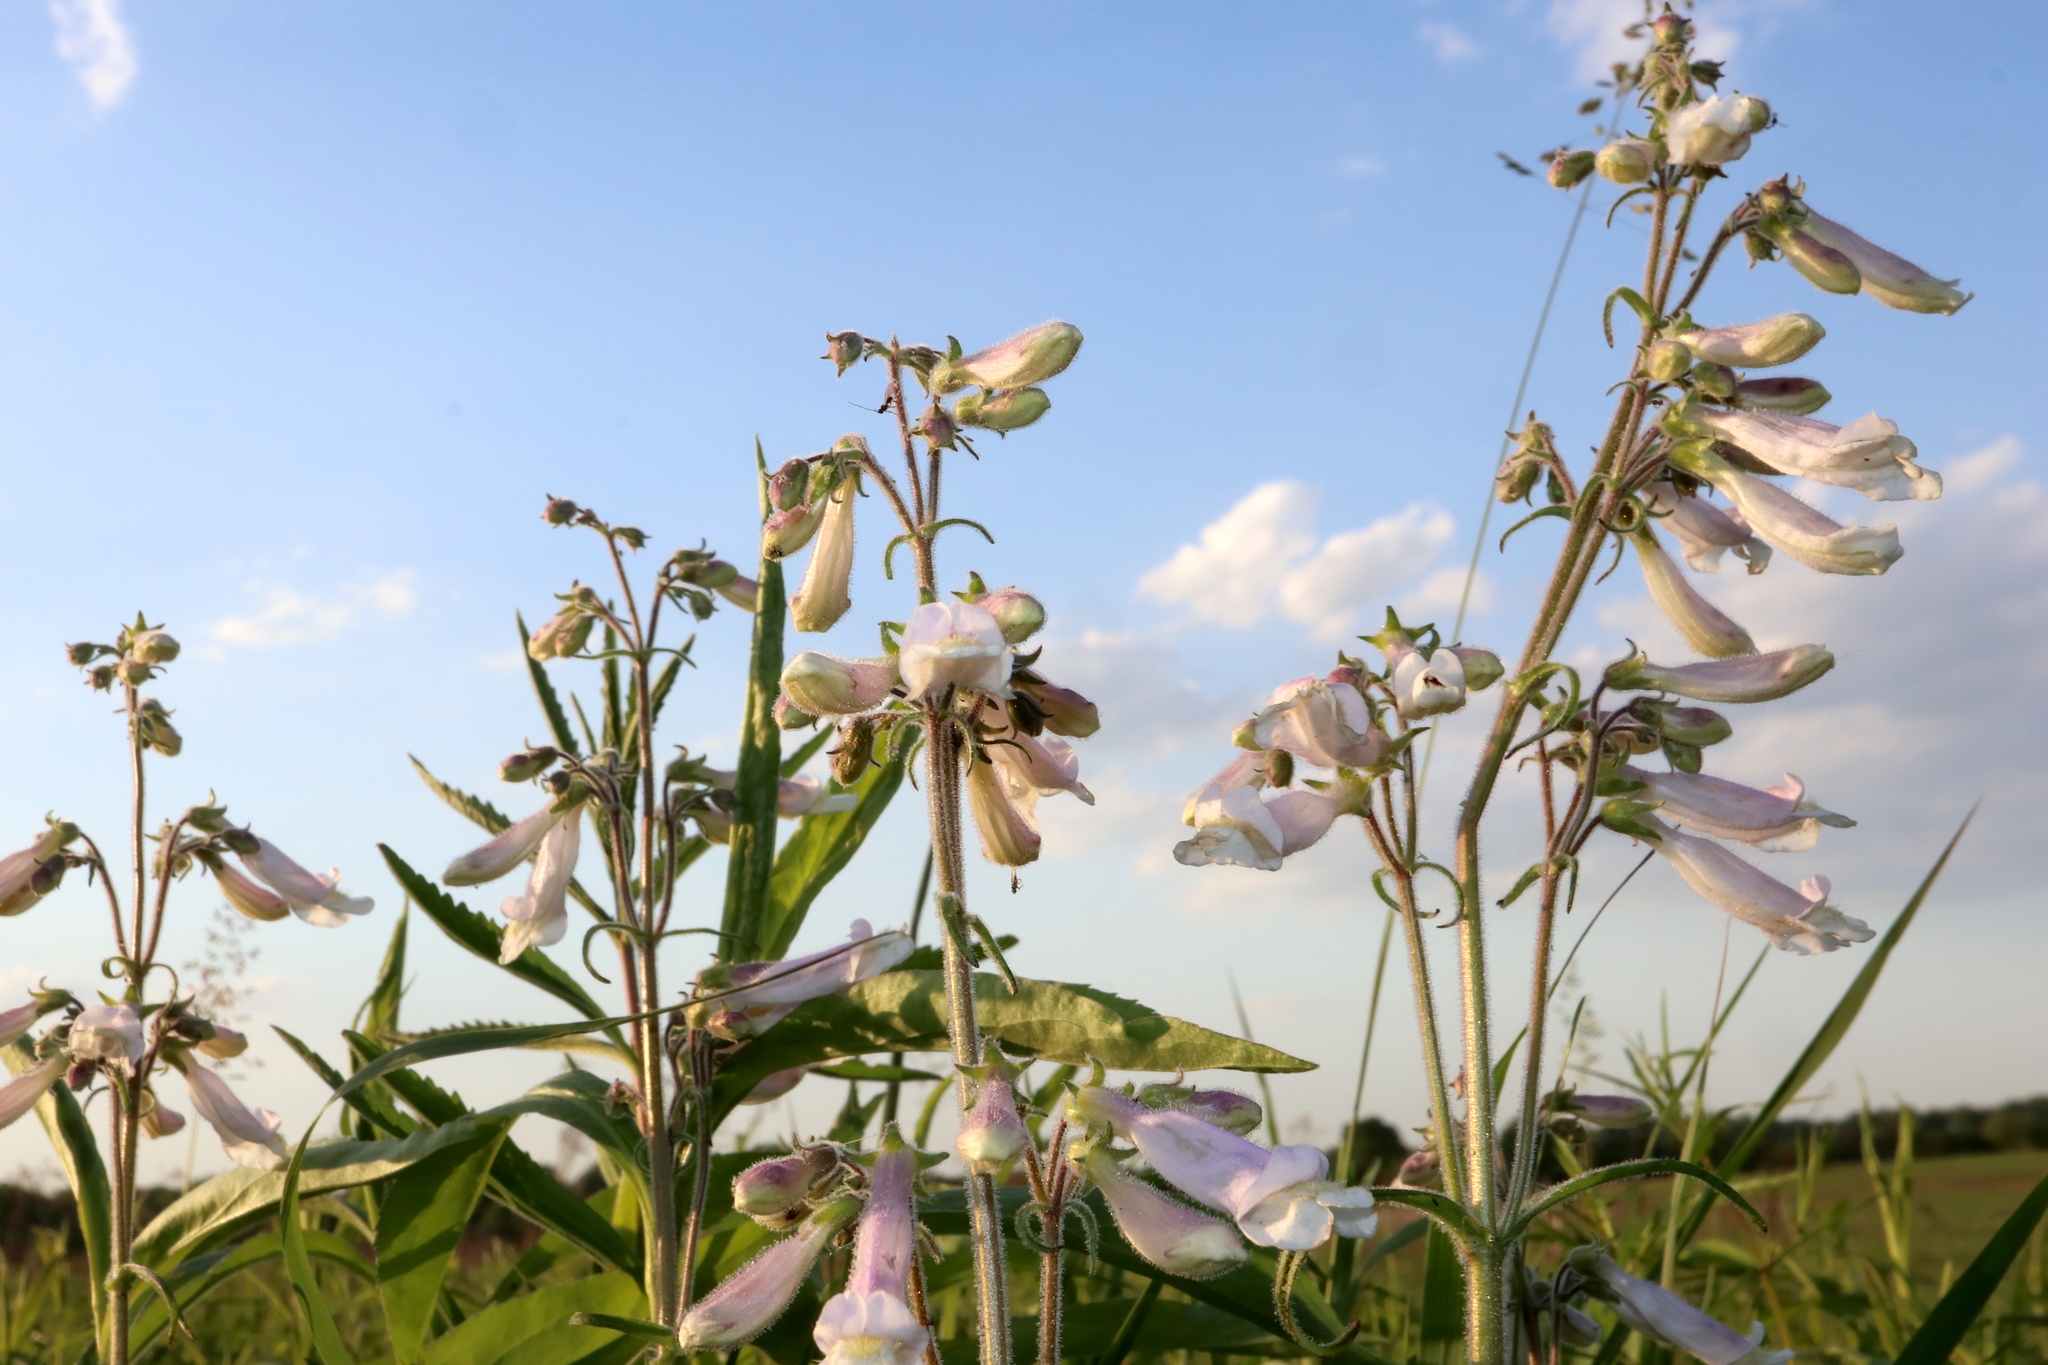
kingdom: Plantae
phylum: Tracheophyta
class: Magnoliopsida
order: Lamiales
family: Plantaginaceae
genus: Penstemon
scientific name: Penstemon hirsutus
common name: Hairy beardtongue
